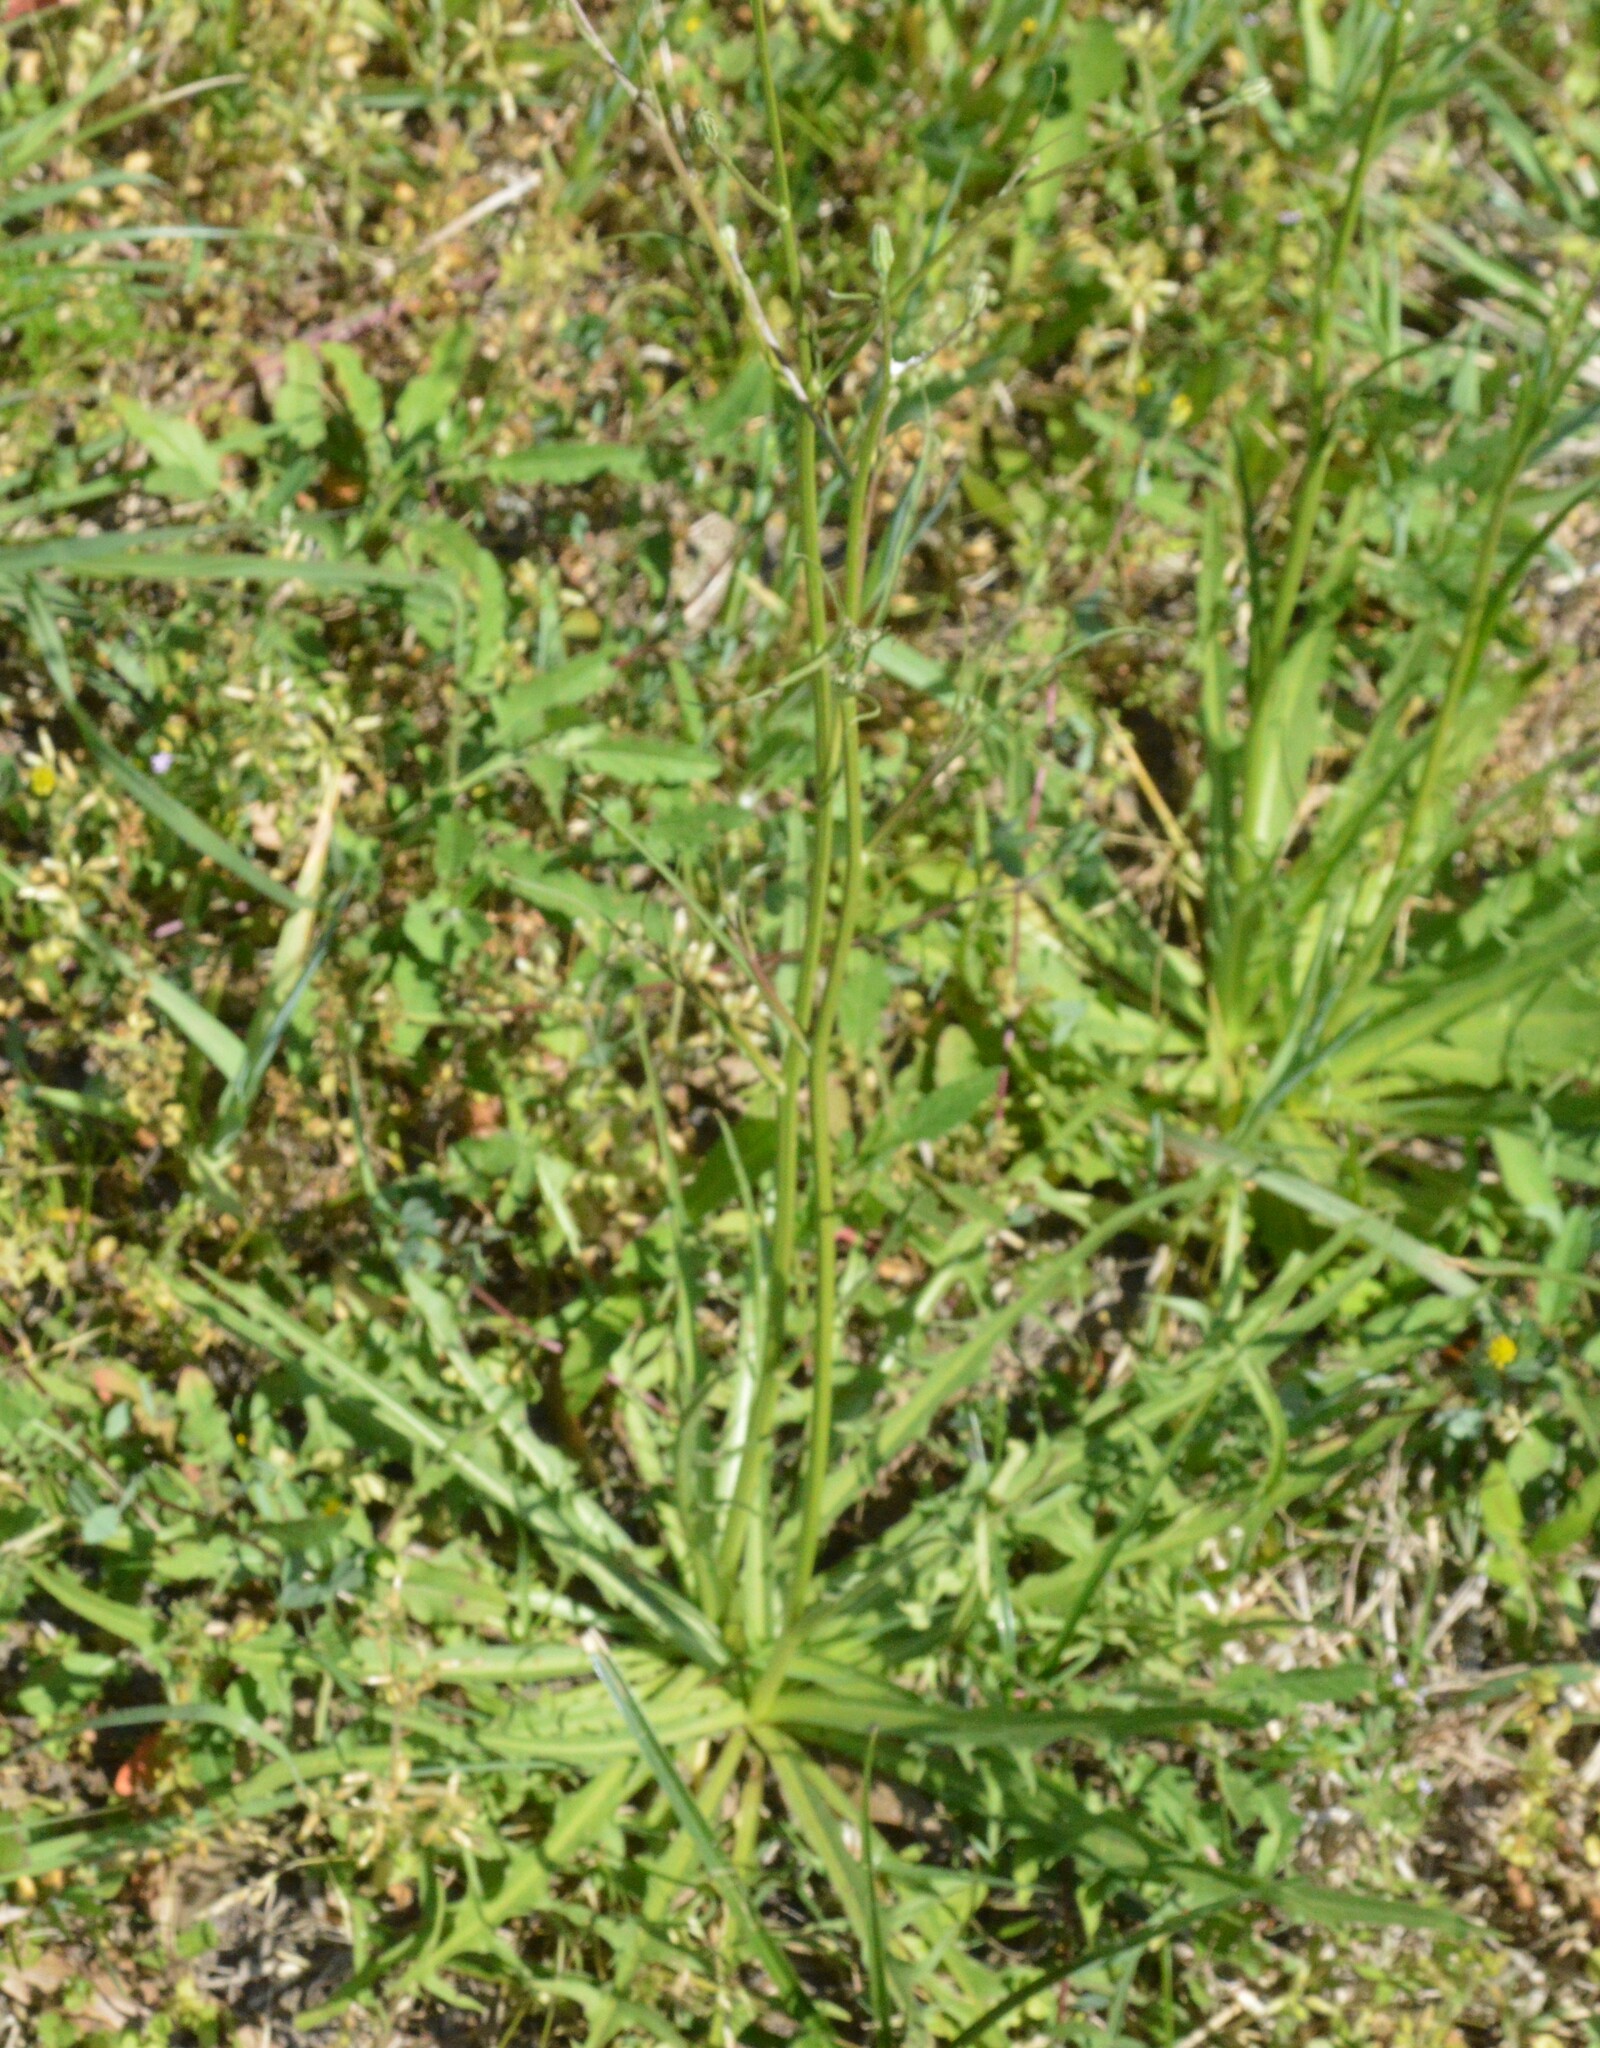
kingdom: Plantae
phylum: Tracheophyta
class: Magnoliopsida
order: Asterales
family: Asteraceae
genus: Hypochaeris
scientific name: Hypochaeris albiflora
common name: White flatweed
